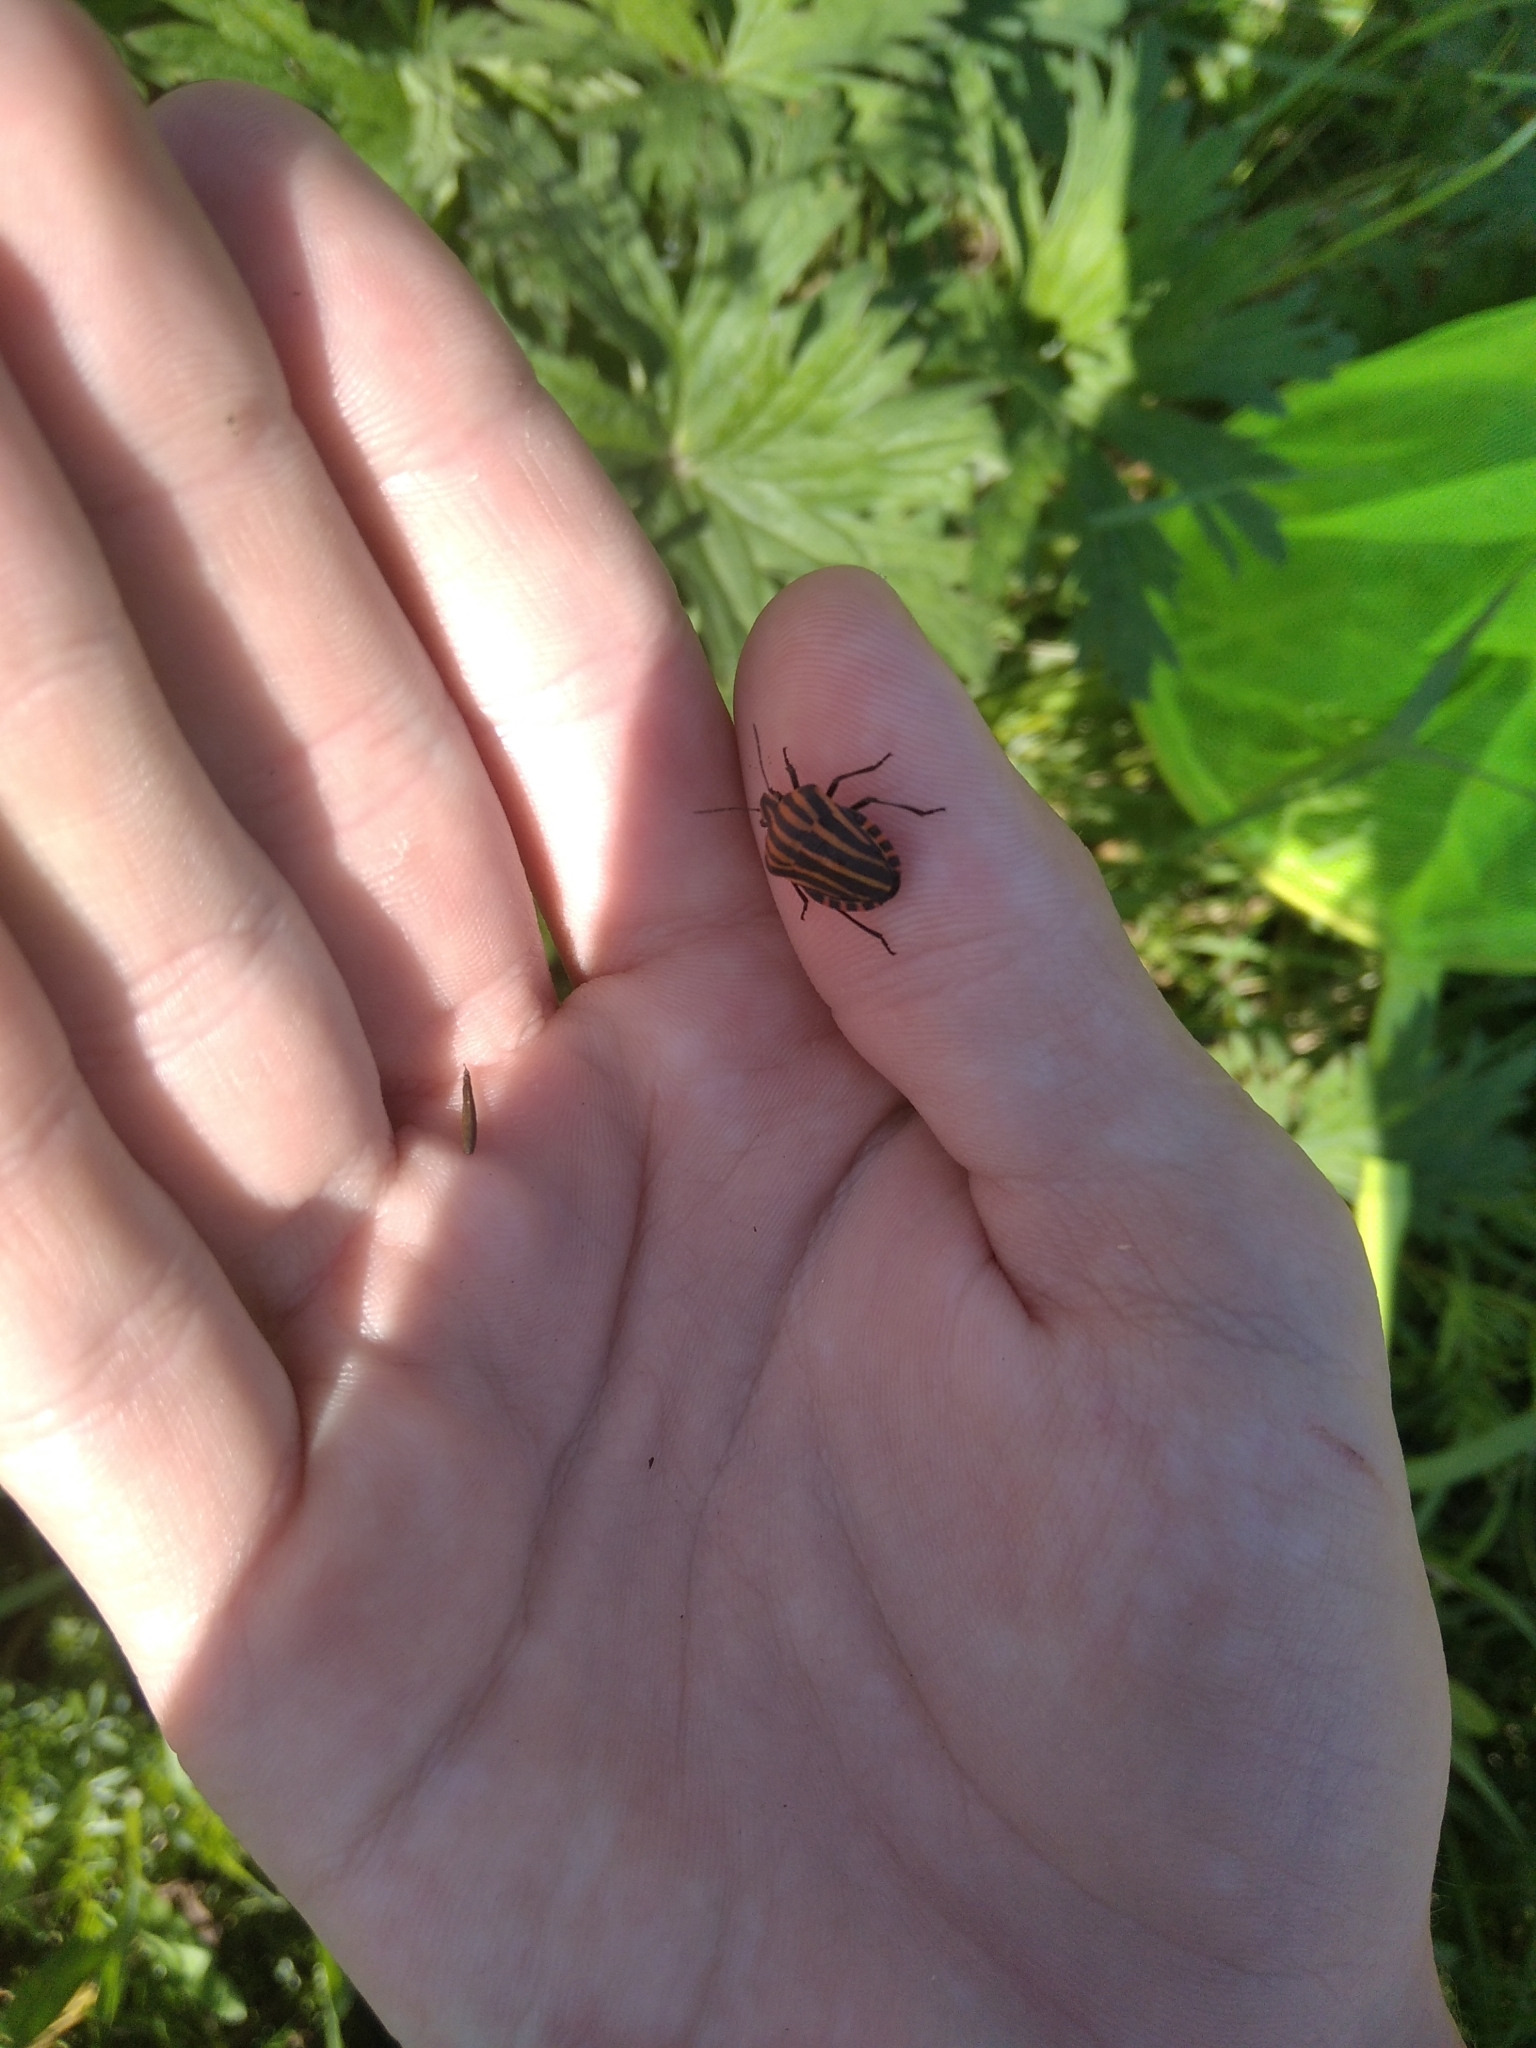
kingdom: Animalia
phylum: Arthropoda
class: Insecta
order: Hemiptera
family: Pentatomidae
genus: Graphosoma
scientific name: Graphosoma italicum
